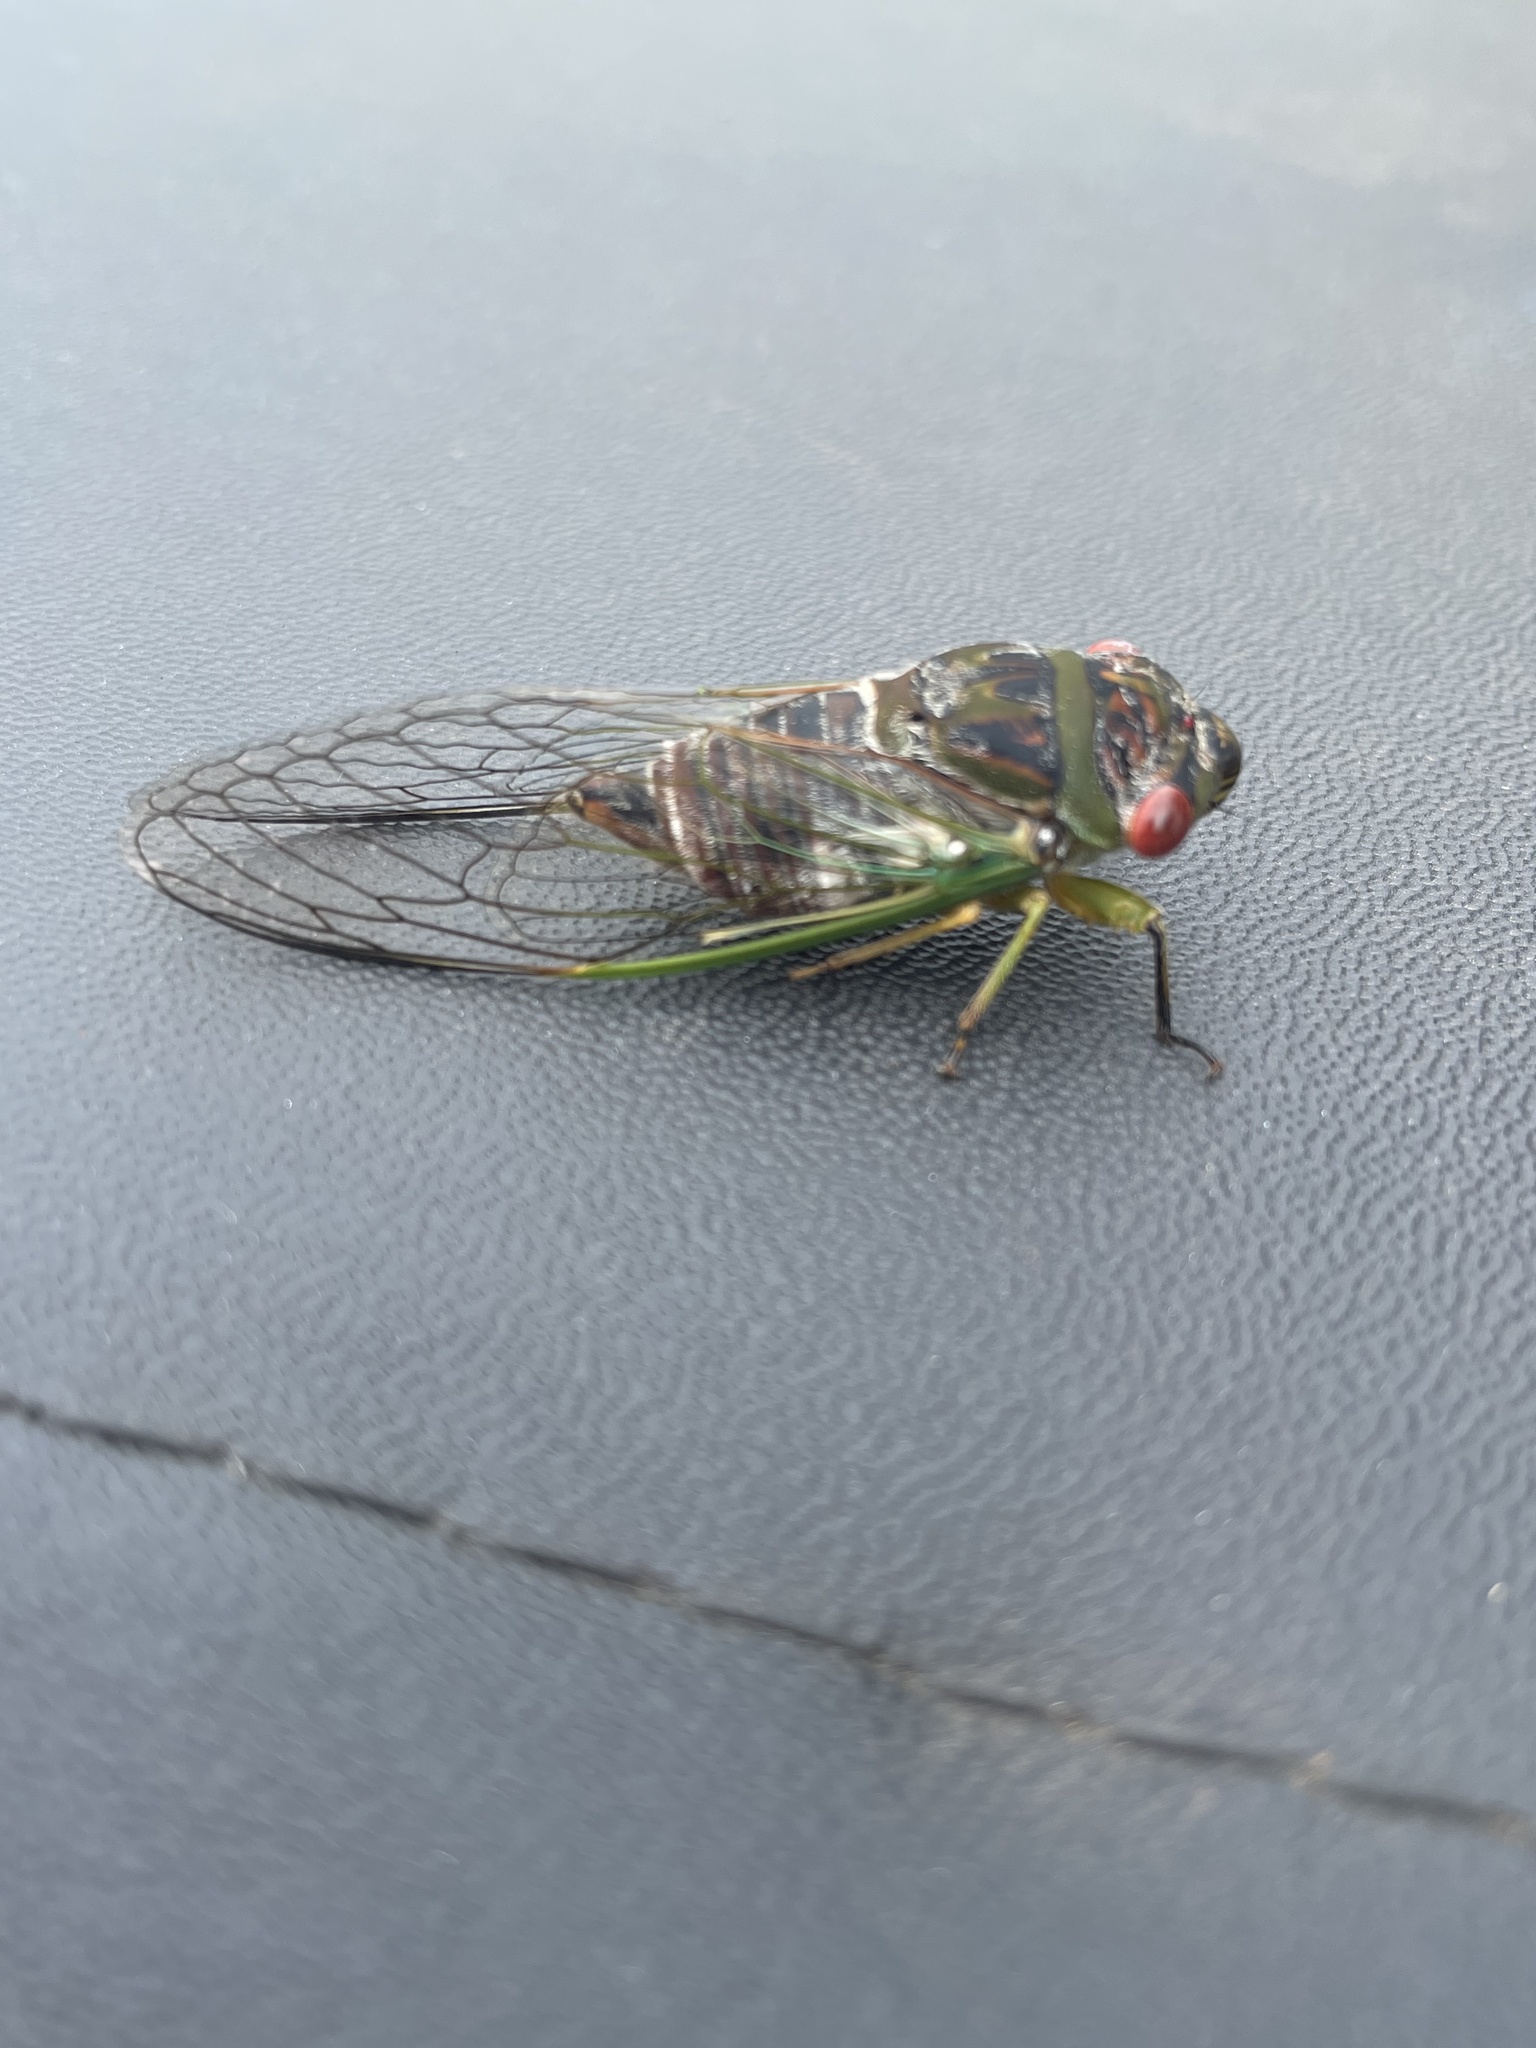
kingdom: Animalia
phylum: Arthropoda
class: Insecta
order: Hemiptera
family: Cicadidae
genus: Psaltoda
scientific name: Psaltoda claripennis
